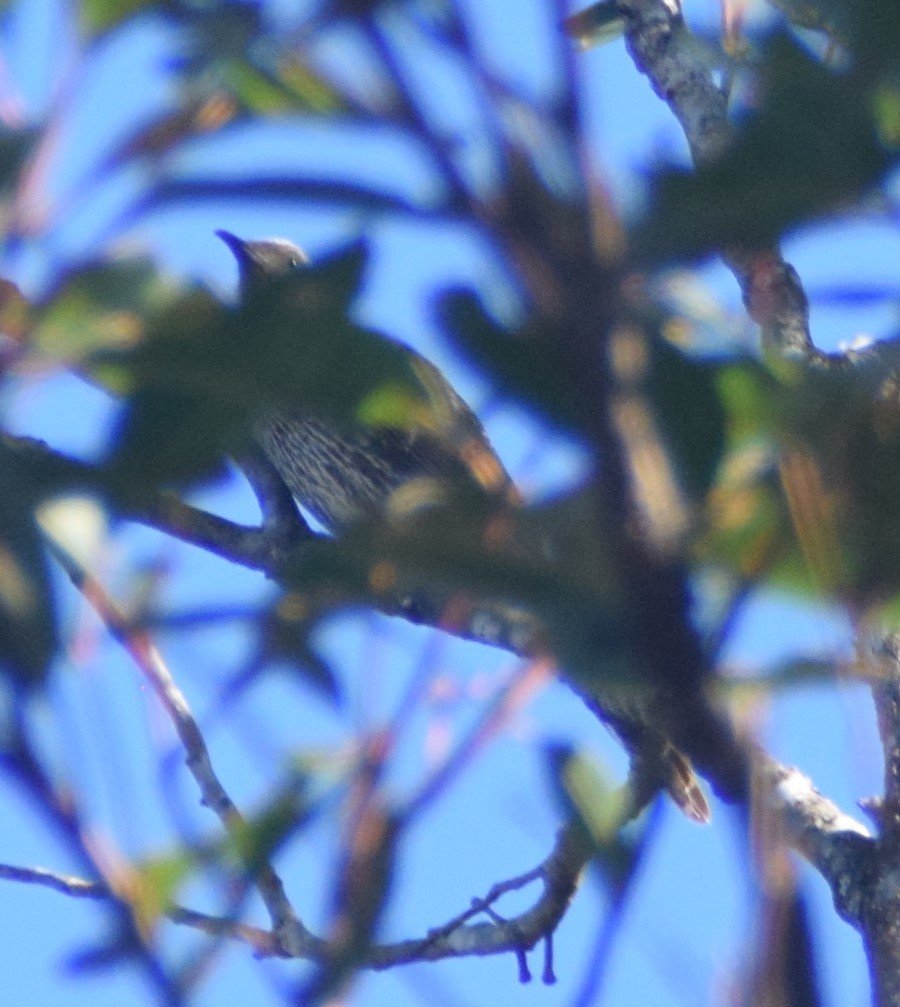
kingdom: Animalia
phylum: Chordata
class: Aves
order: Passeriformes
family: Meliphagidae
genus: Anthochaera
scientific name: Anthochaera chrysoptera
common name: Little wattlebird
